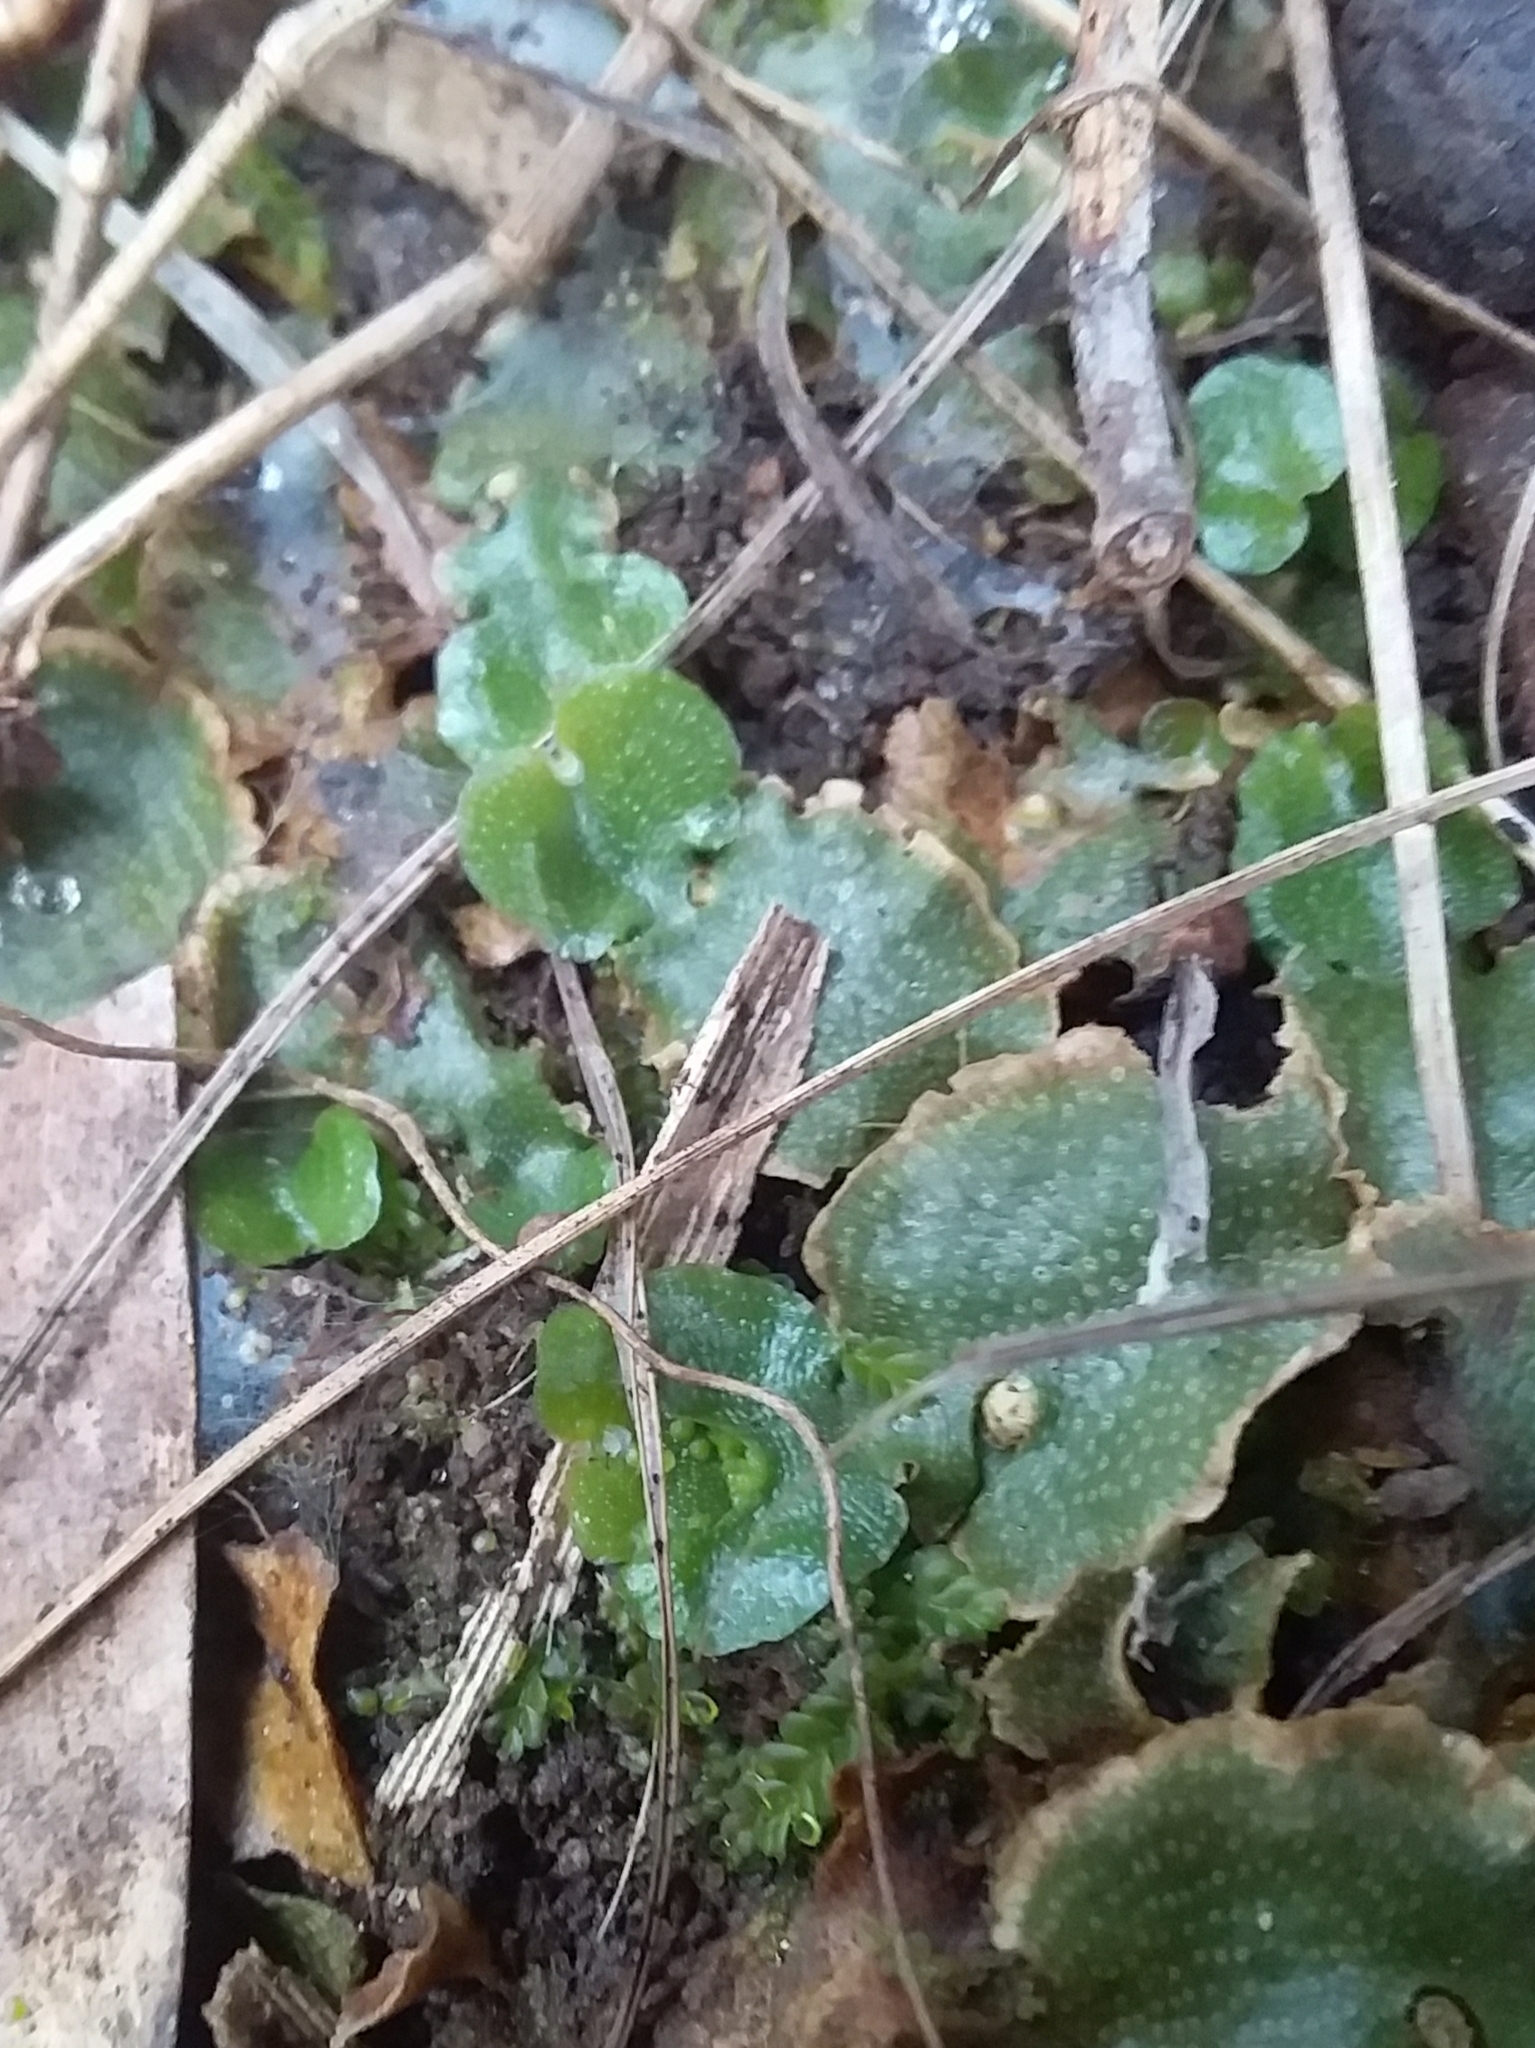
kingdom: Plantae
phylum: Marchantiophyta
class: Marchantiopsida
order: Lunulariales
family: Lunulariaceae
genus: Lunularia
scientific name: Lunularia cruciata
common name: Crescent-cup liverwort
